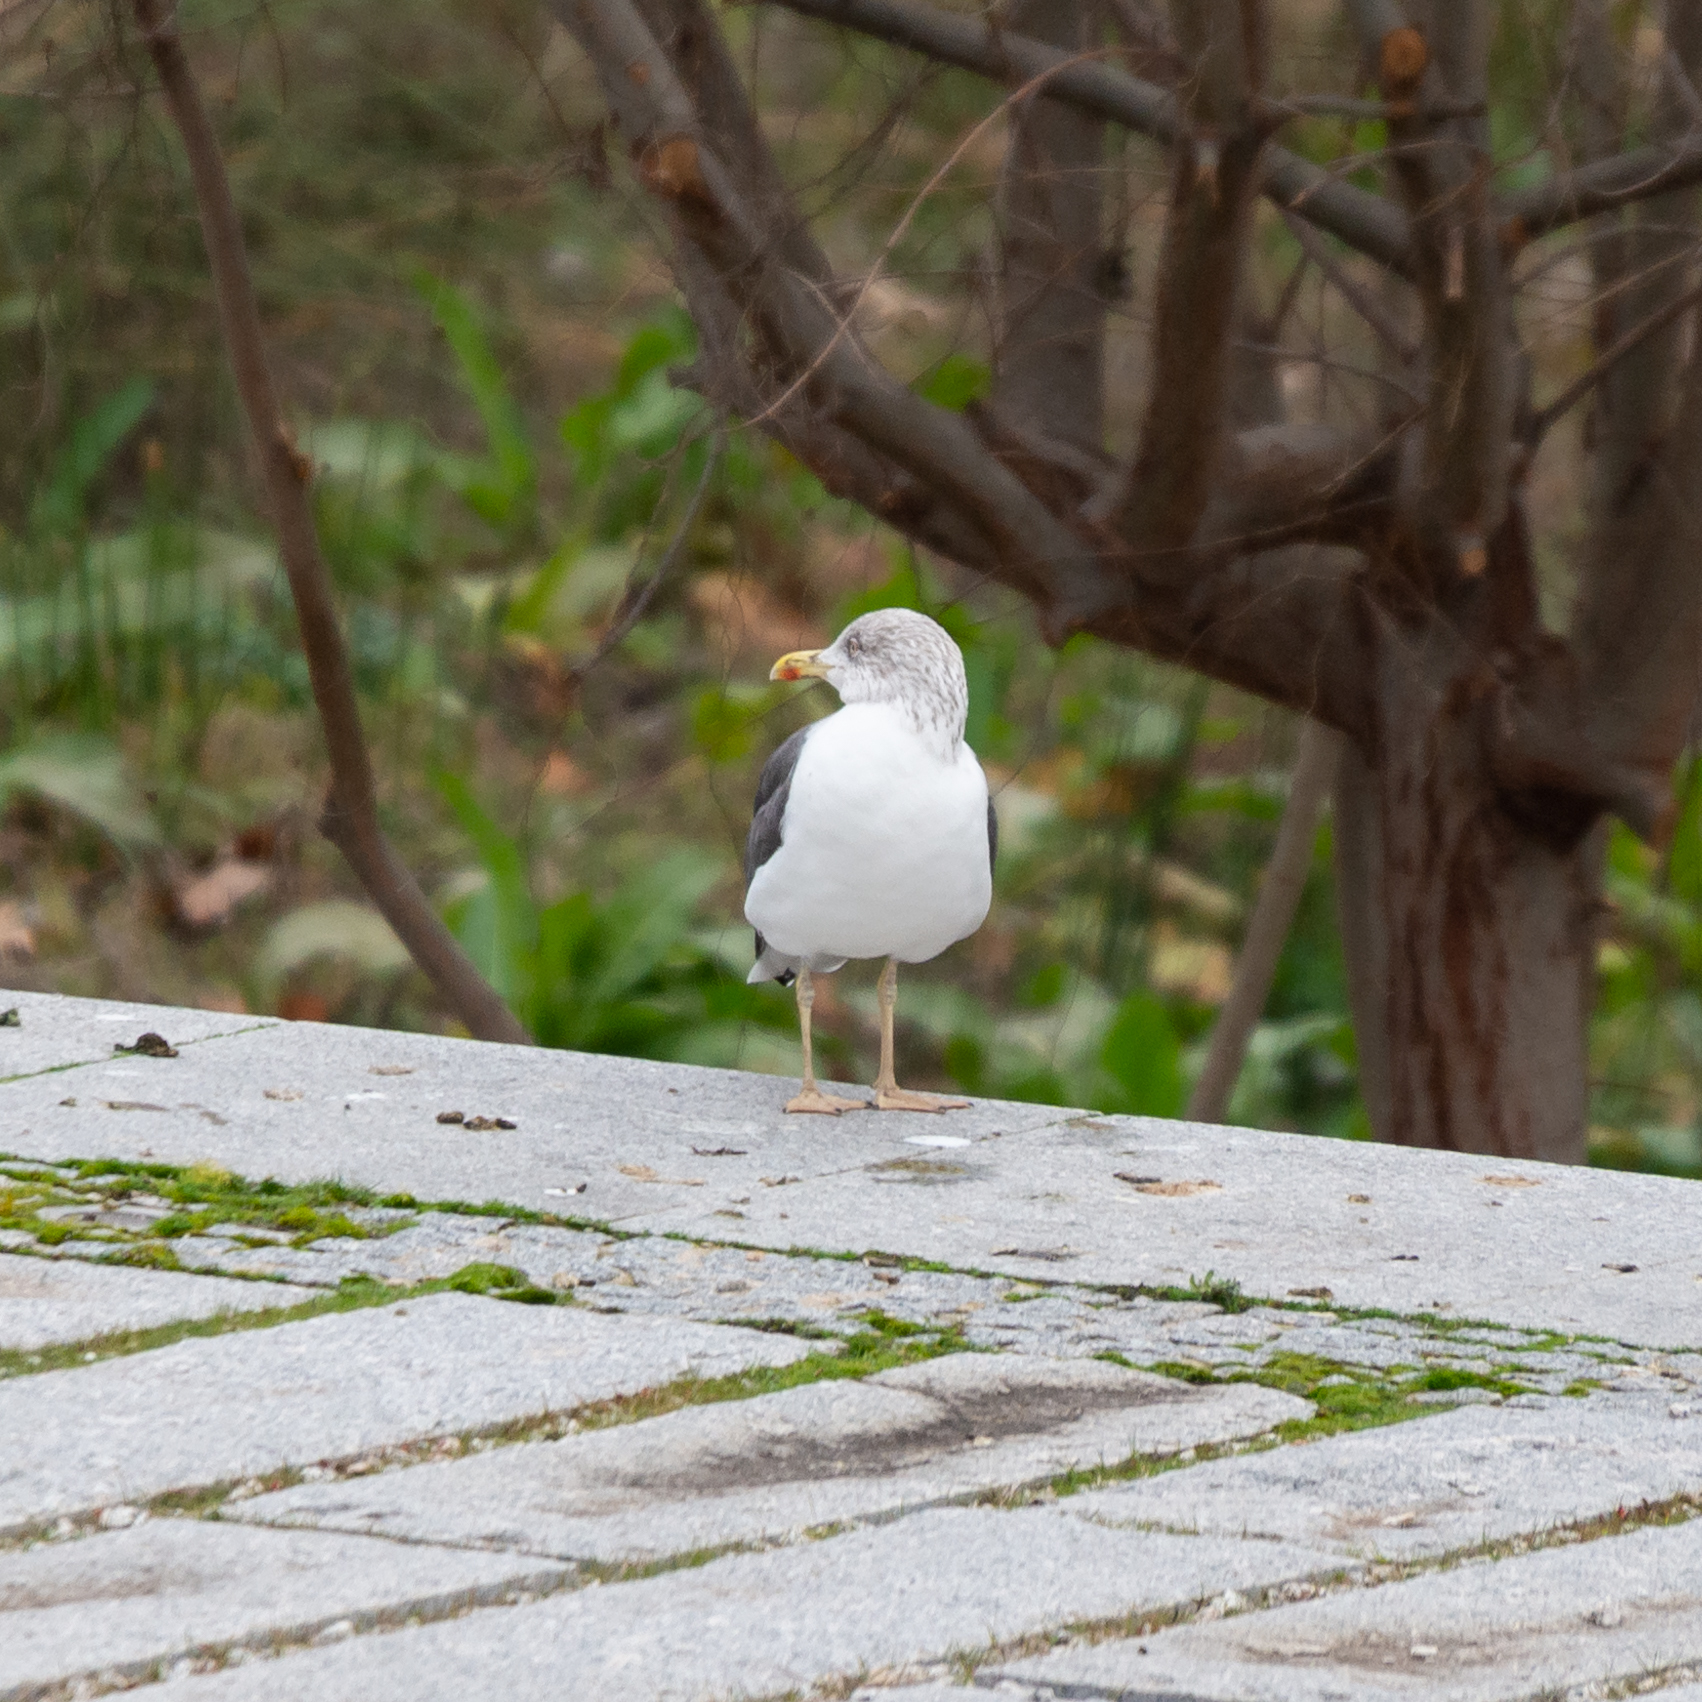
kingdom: Animalia
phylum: Chordata
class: Aves
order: Charadriiformes
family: Laridae
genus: Larus
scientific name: Larus fuscus
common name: Lesser black-backed gull
